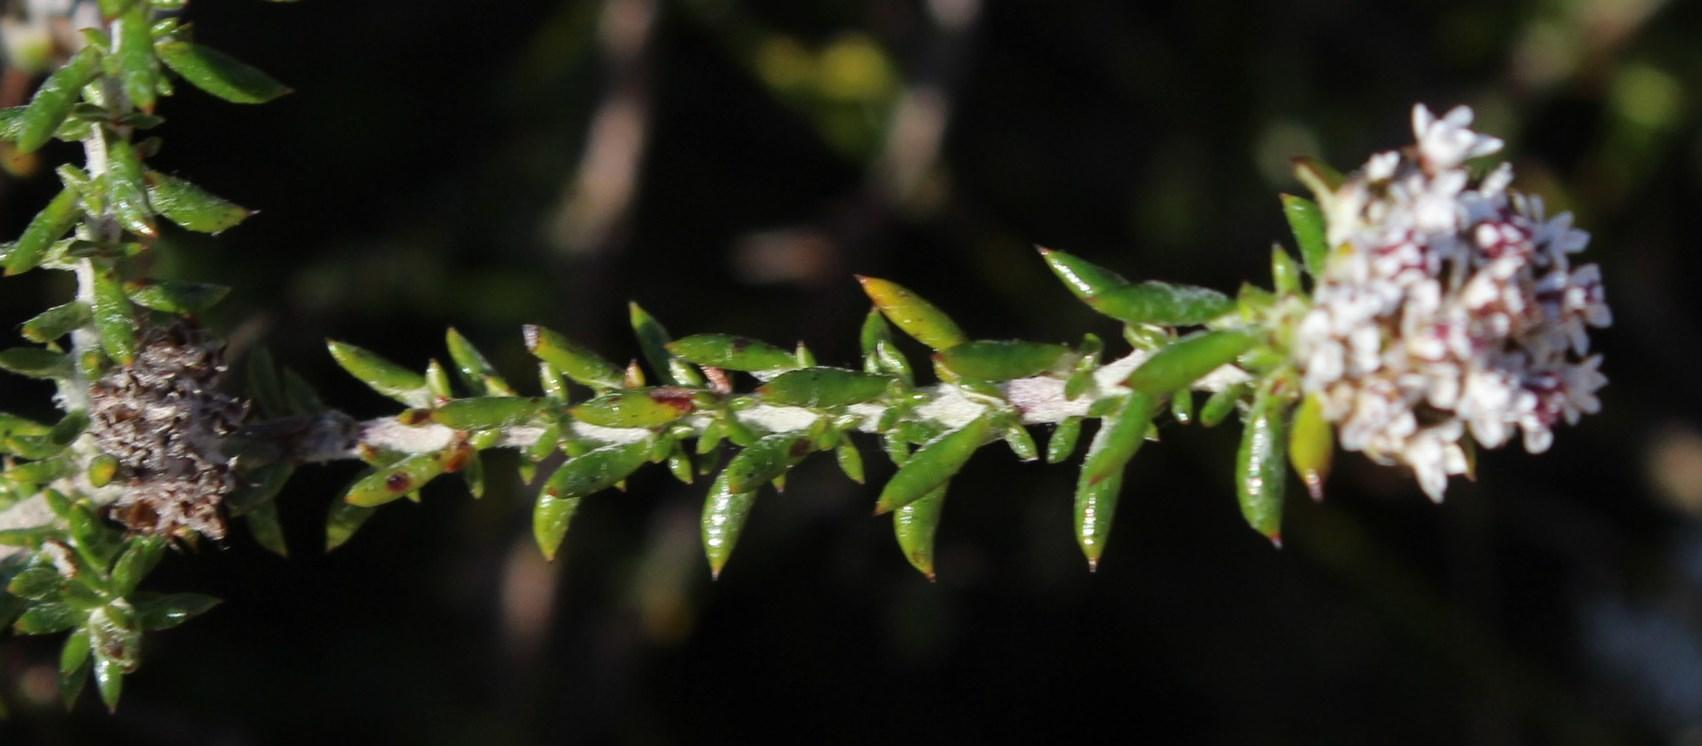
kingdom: Plantae
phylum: Tracheophyta
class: Magnoliopsida
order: Asterales
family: Asteraceae
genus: Metalasia
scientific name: Metalasia divergens
